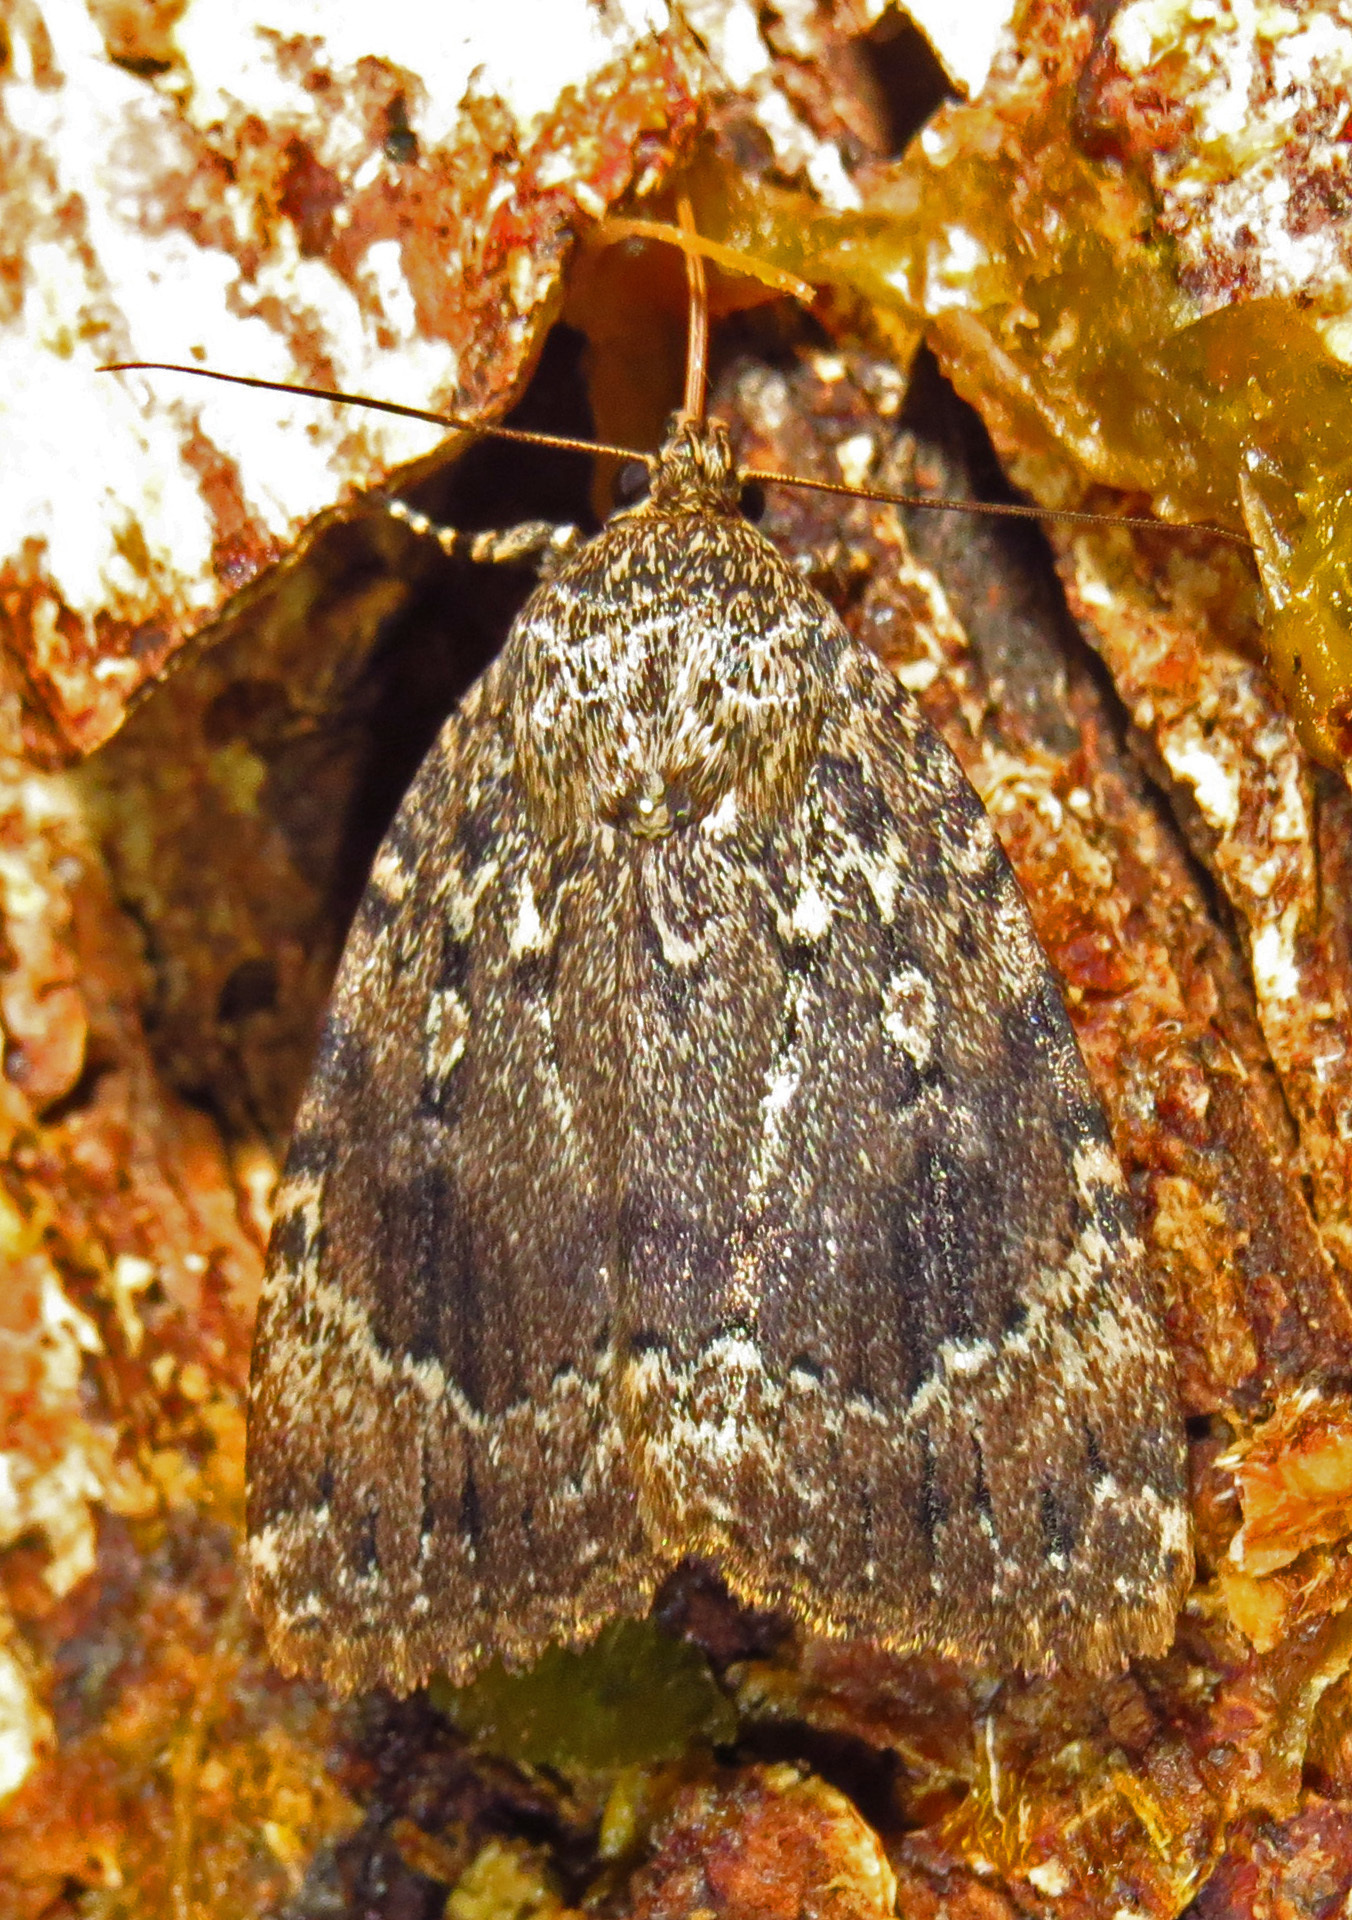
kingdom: Animalia
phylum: Arthropoda
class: Insecta
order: Lepidoptera
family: Noctuidae
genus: Amphipyra
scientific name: Amphipyra pyramidoides
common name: American copper underwing
